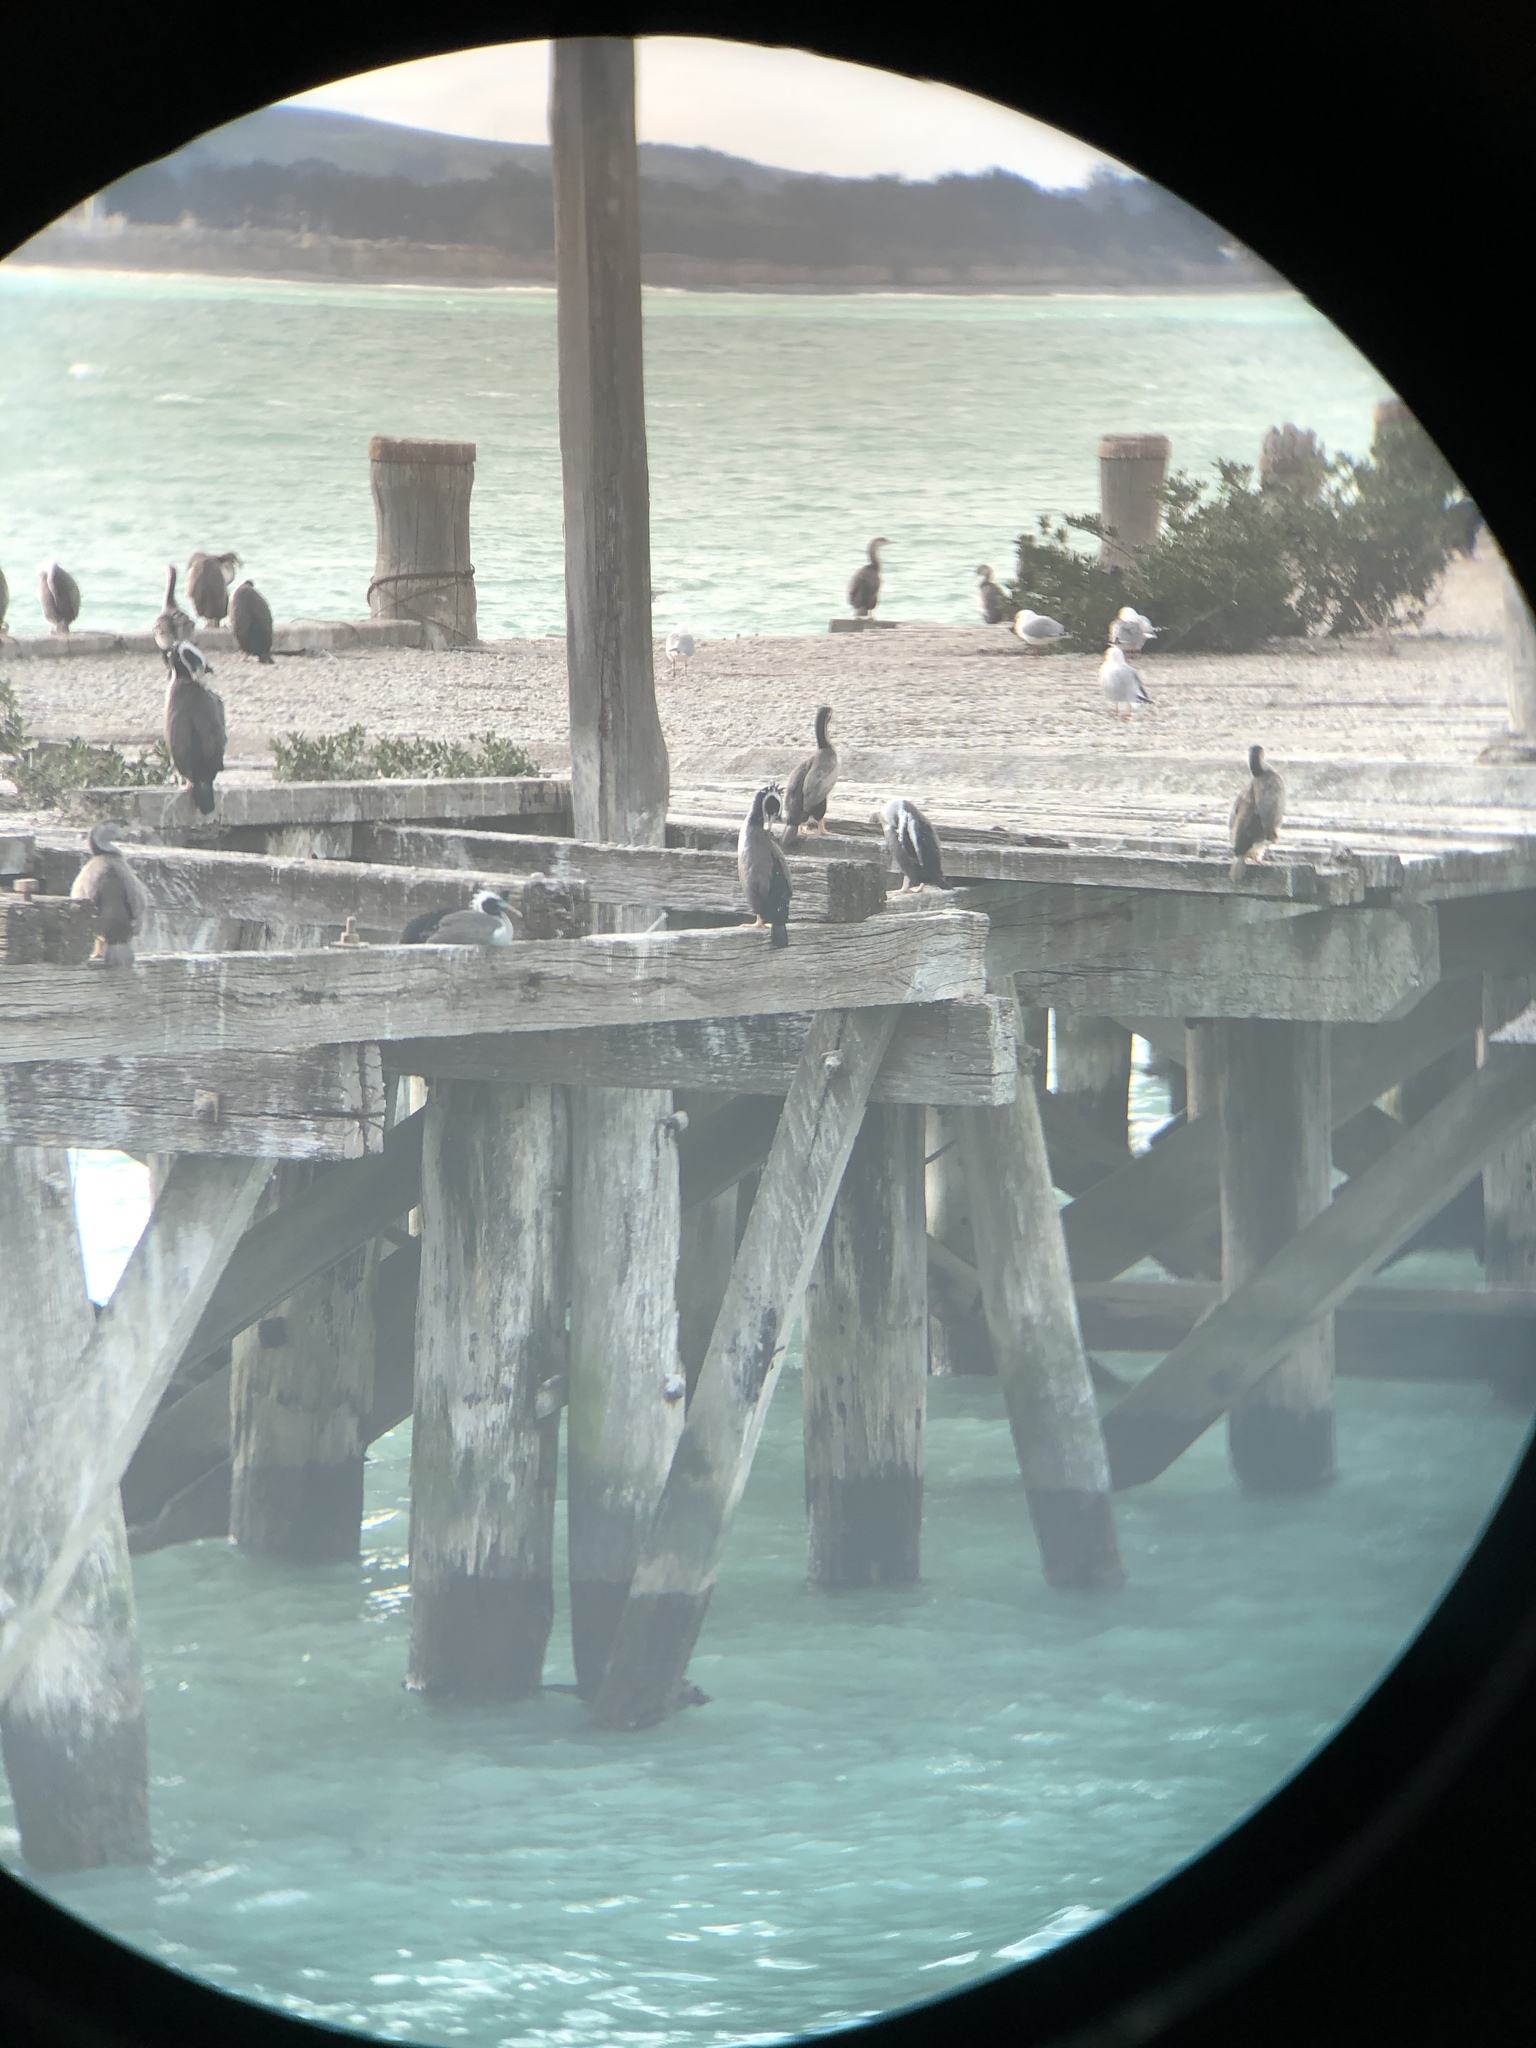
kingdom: Animalia
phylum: Chordata
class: Aves
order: Suliformes
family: Phalacrocoracidae
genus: Phalacrocorax
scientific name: Phalacrocorax punctatus
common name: Spotted shag
